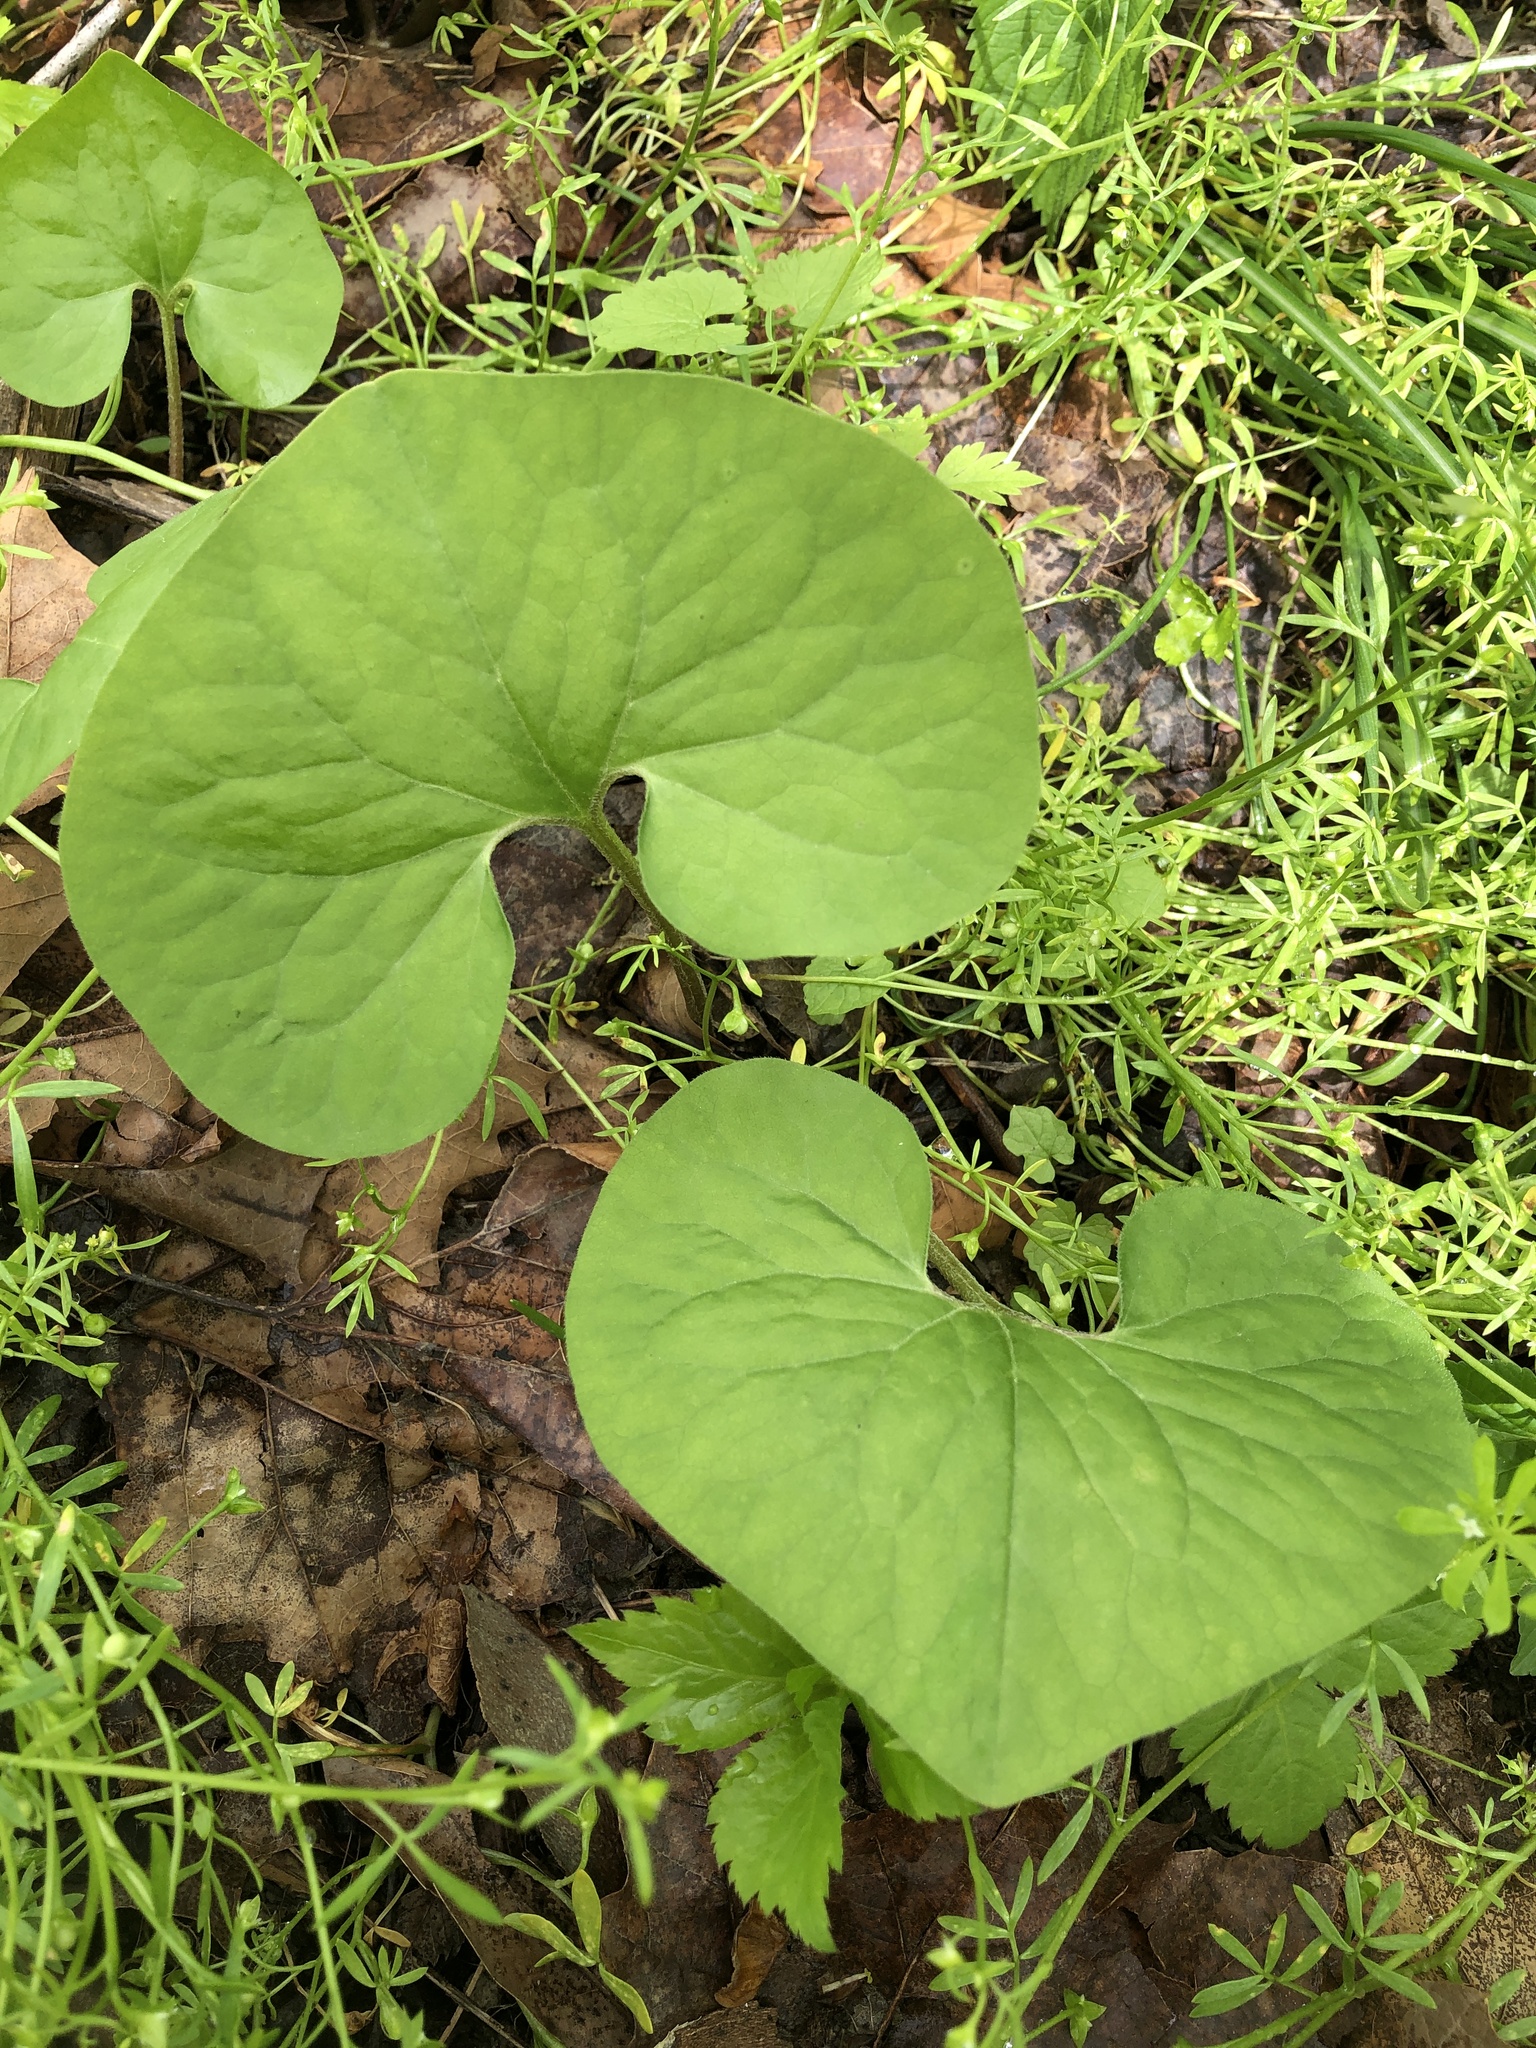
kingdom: Plantae
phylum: Tracheophyta
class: Magnoliopsida
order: Piperales
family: Aristolochiaceae
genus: Asarum
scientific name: Asarum canadense
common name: Wild ginger
